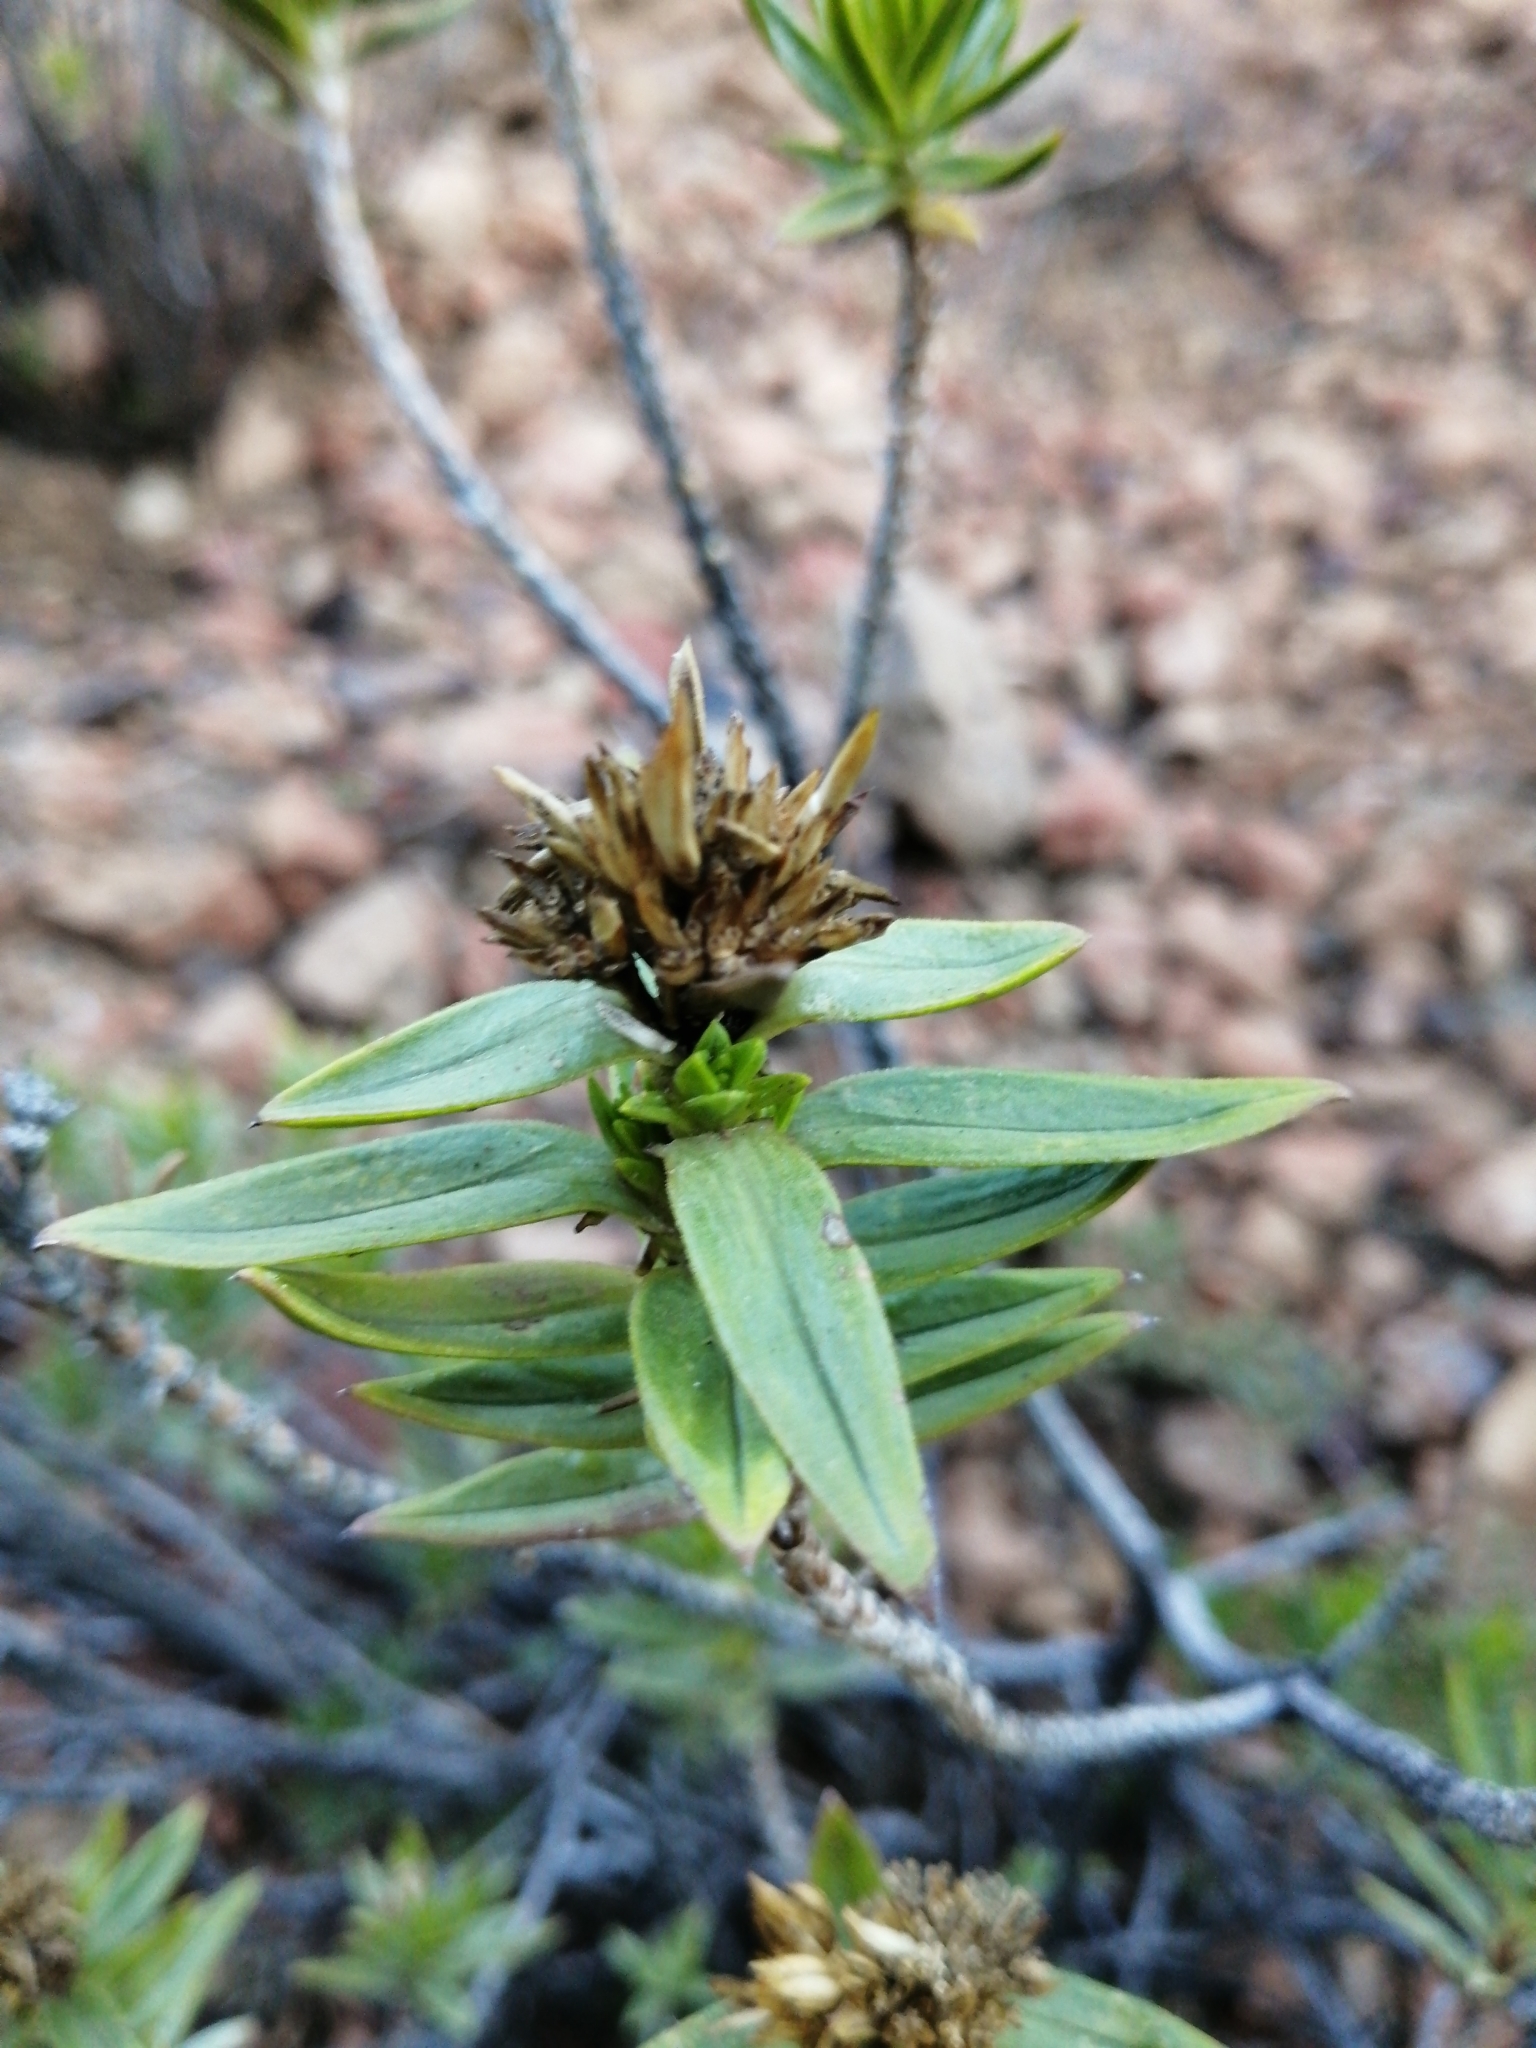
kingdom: Plantae
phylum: Tracheophyta
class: Magnoliopsida
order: Asterales
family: Asteraceae
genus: Pteronia
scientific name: Pteronia fasciculata
